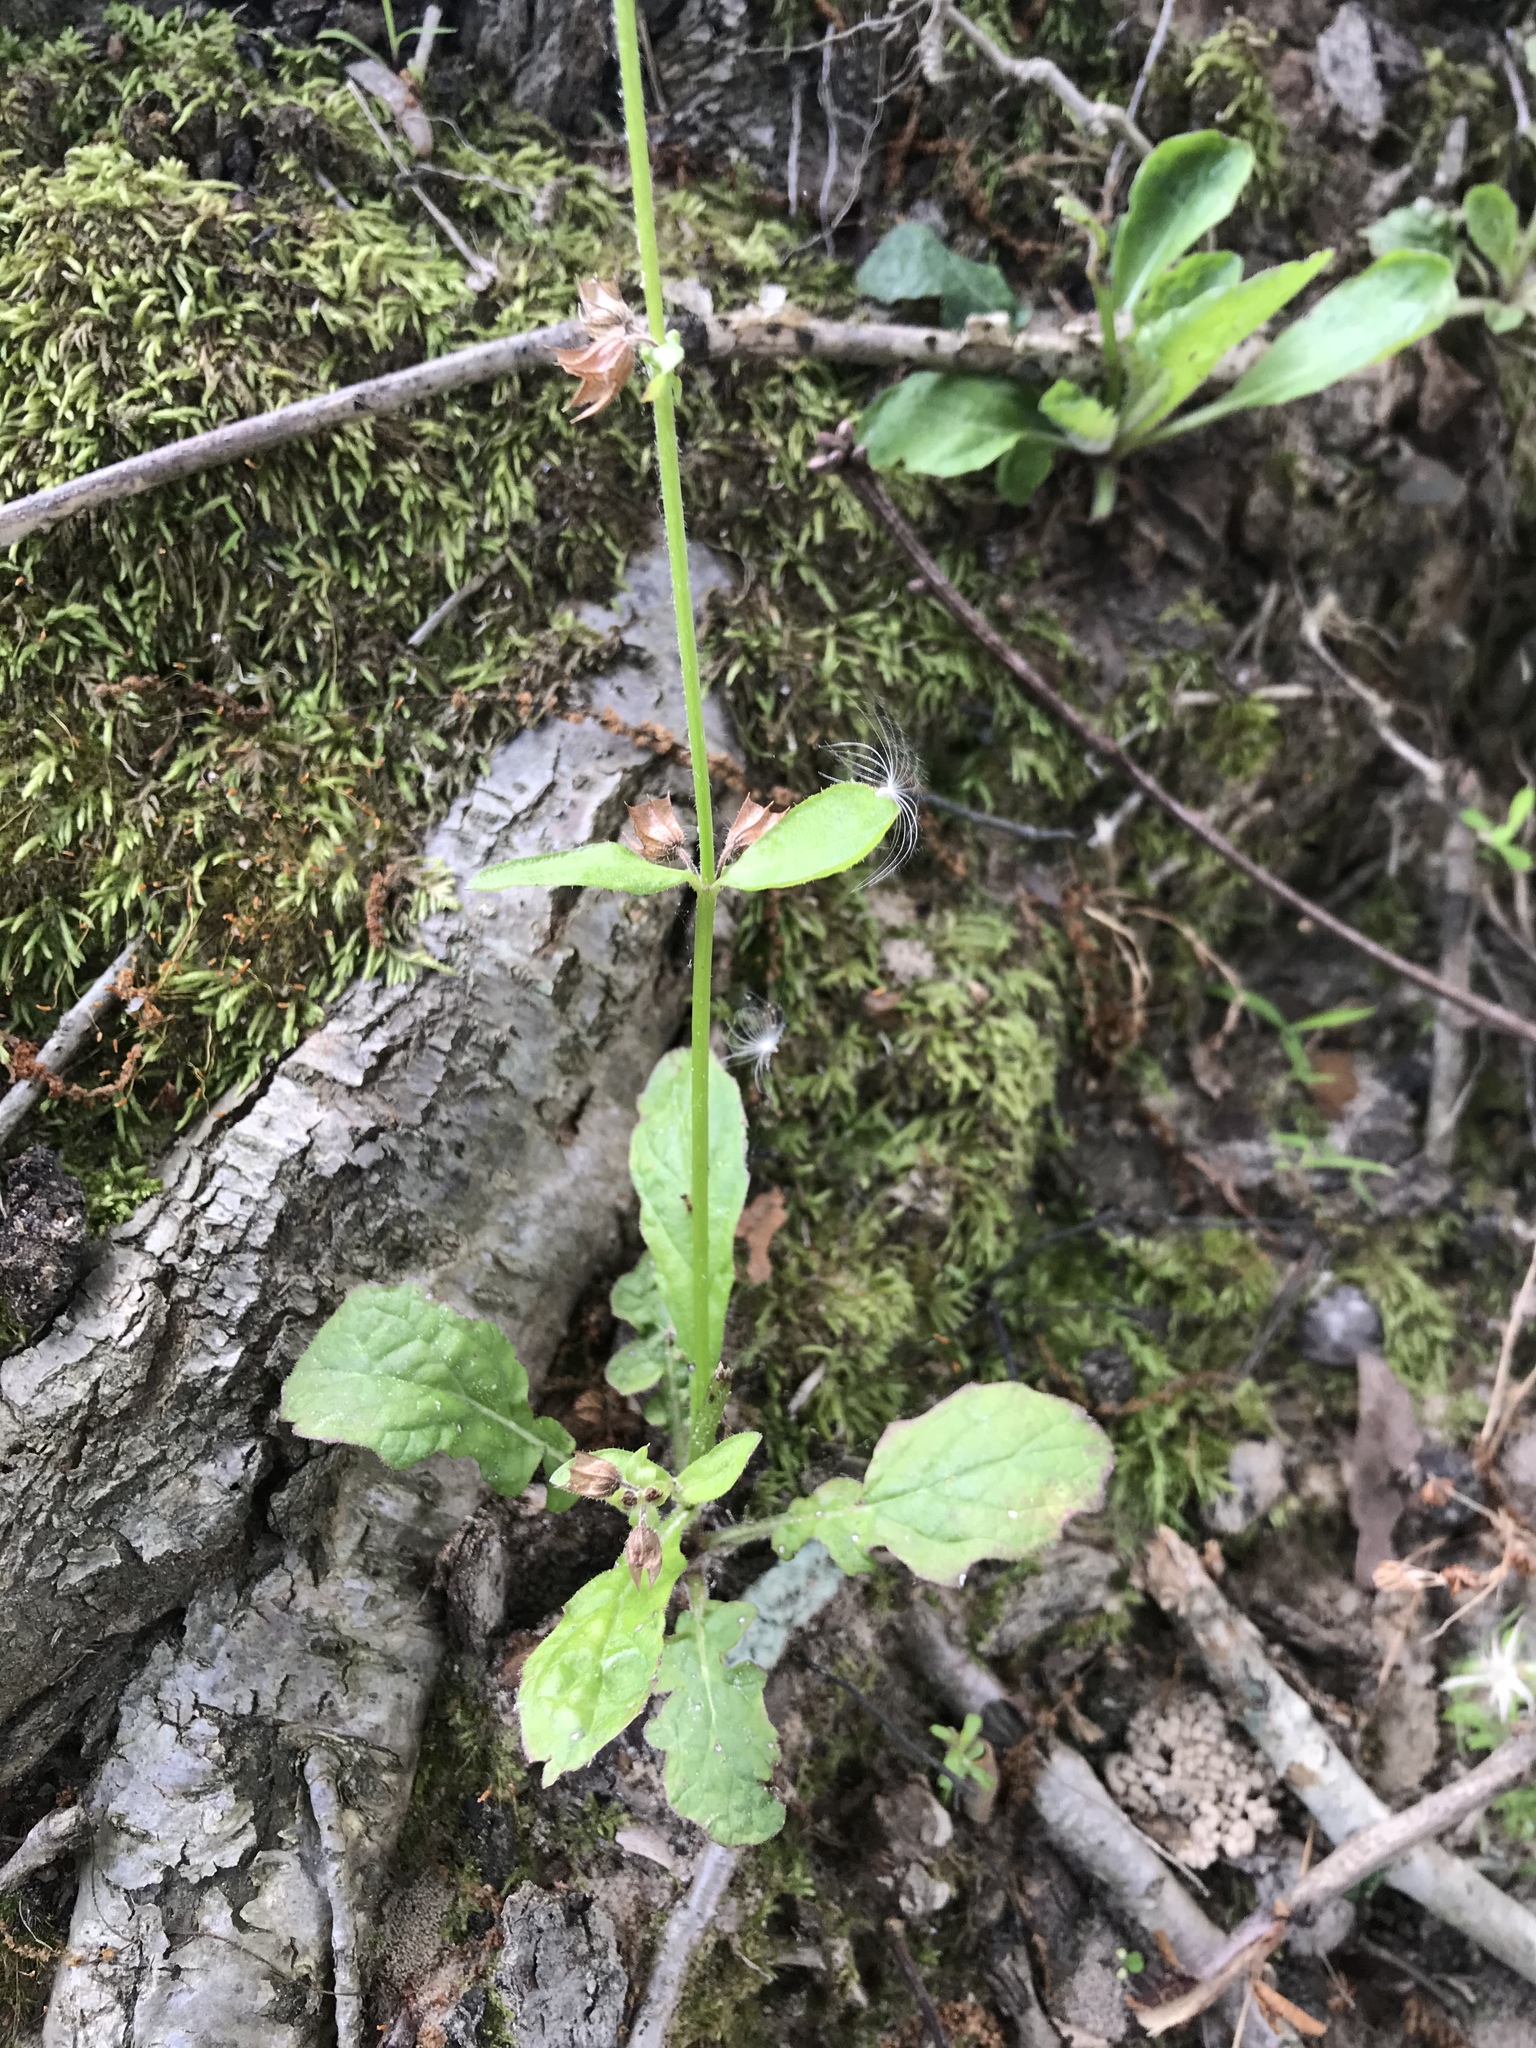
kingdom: Plantae
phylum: Tracheophyta
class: Magnoliopsida
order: Lamiales
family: Lamiaceae
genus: Salvia
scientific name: Salvia lyrata
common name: Cancerweed
